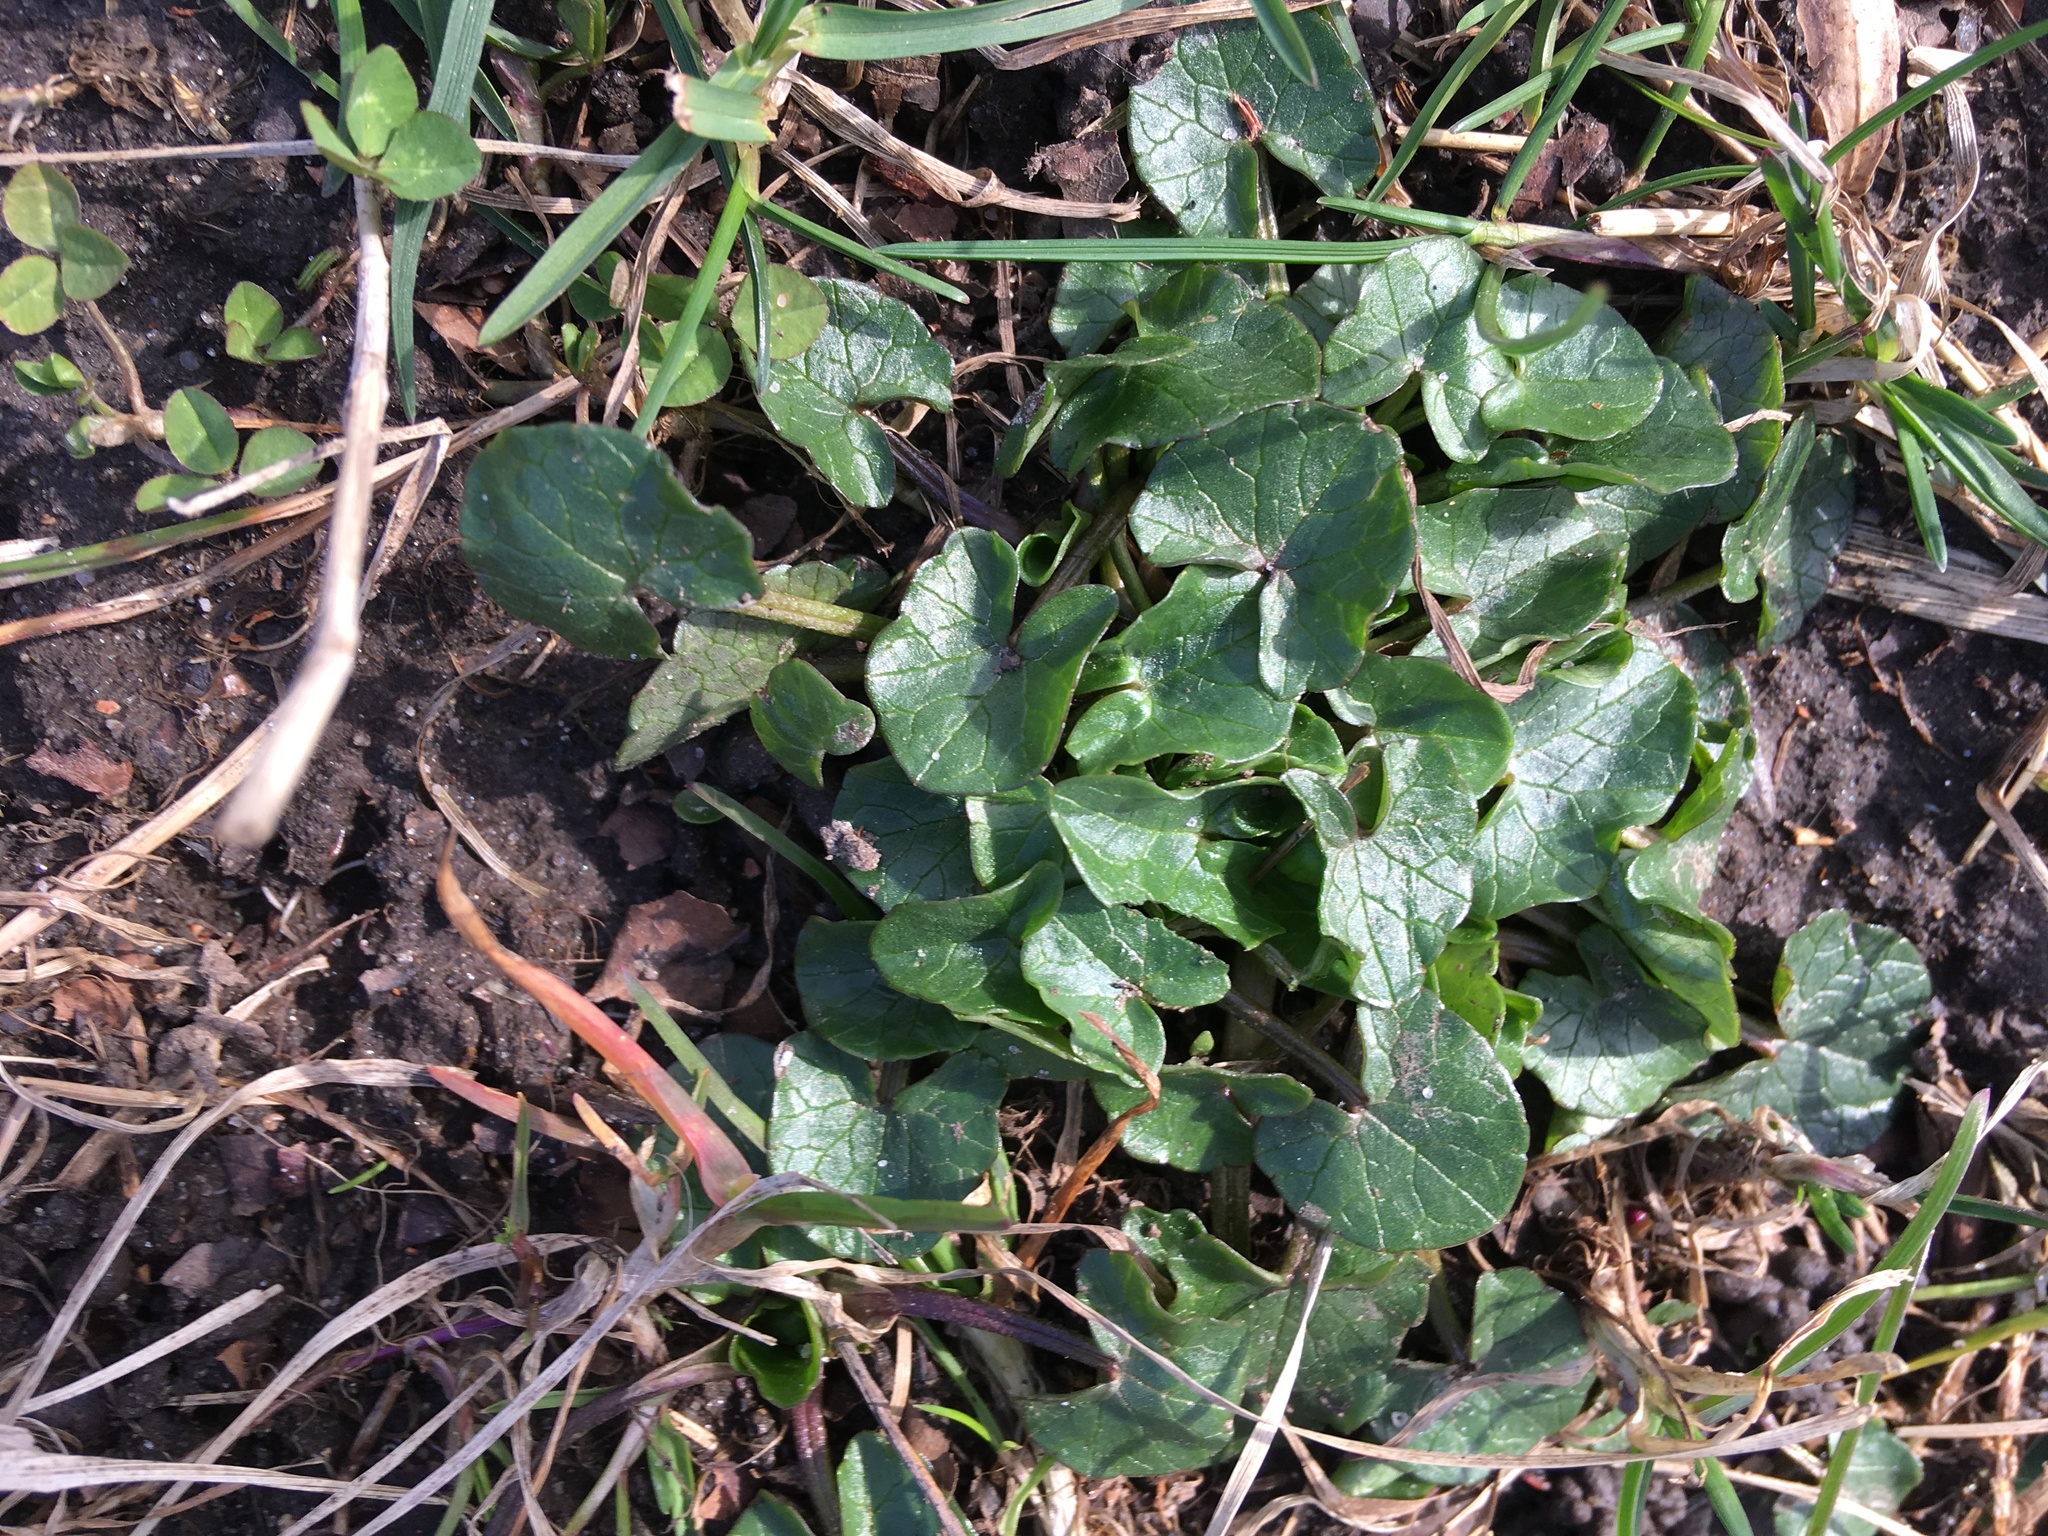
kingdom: Plantae
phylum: Tracheophyta
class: Magnoliopsida
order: Ranunculales
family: Ranunculaceae
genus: Ficaria
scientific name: Ficaria verna
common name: Lesser celandine
